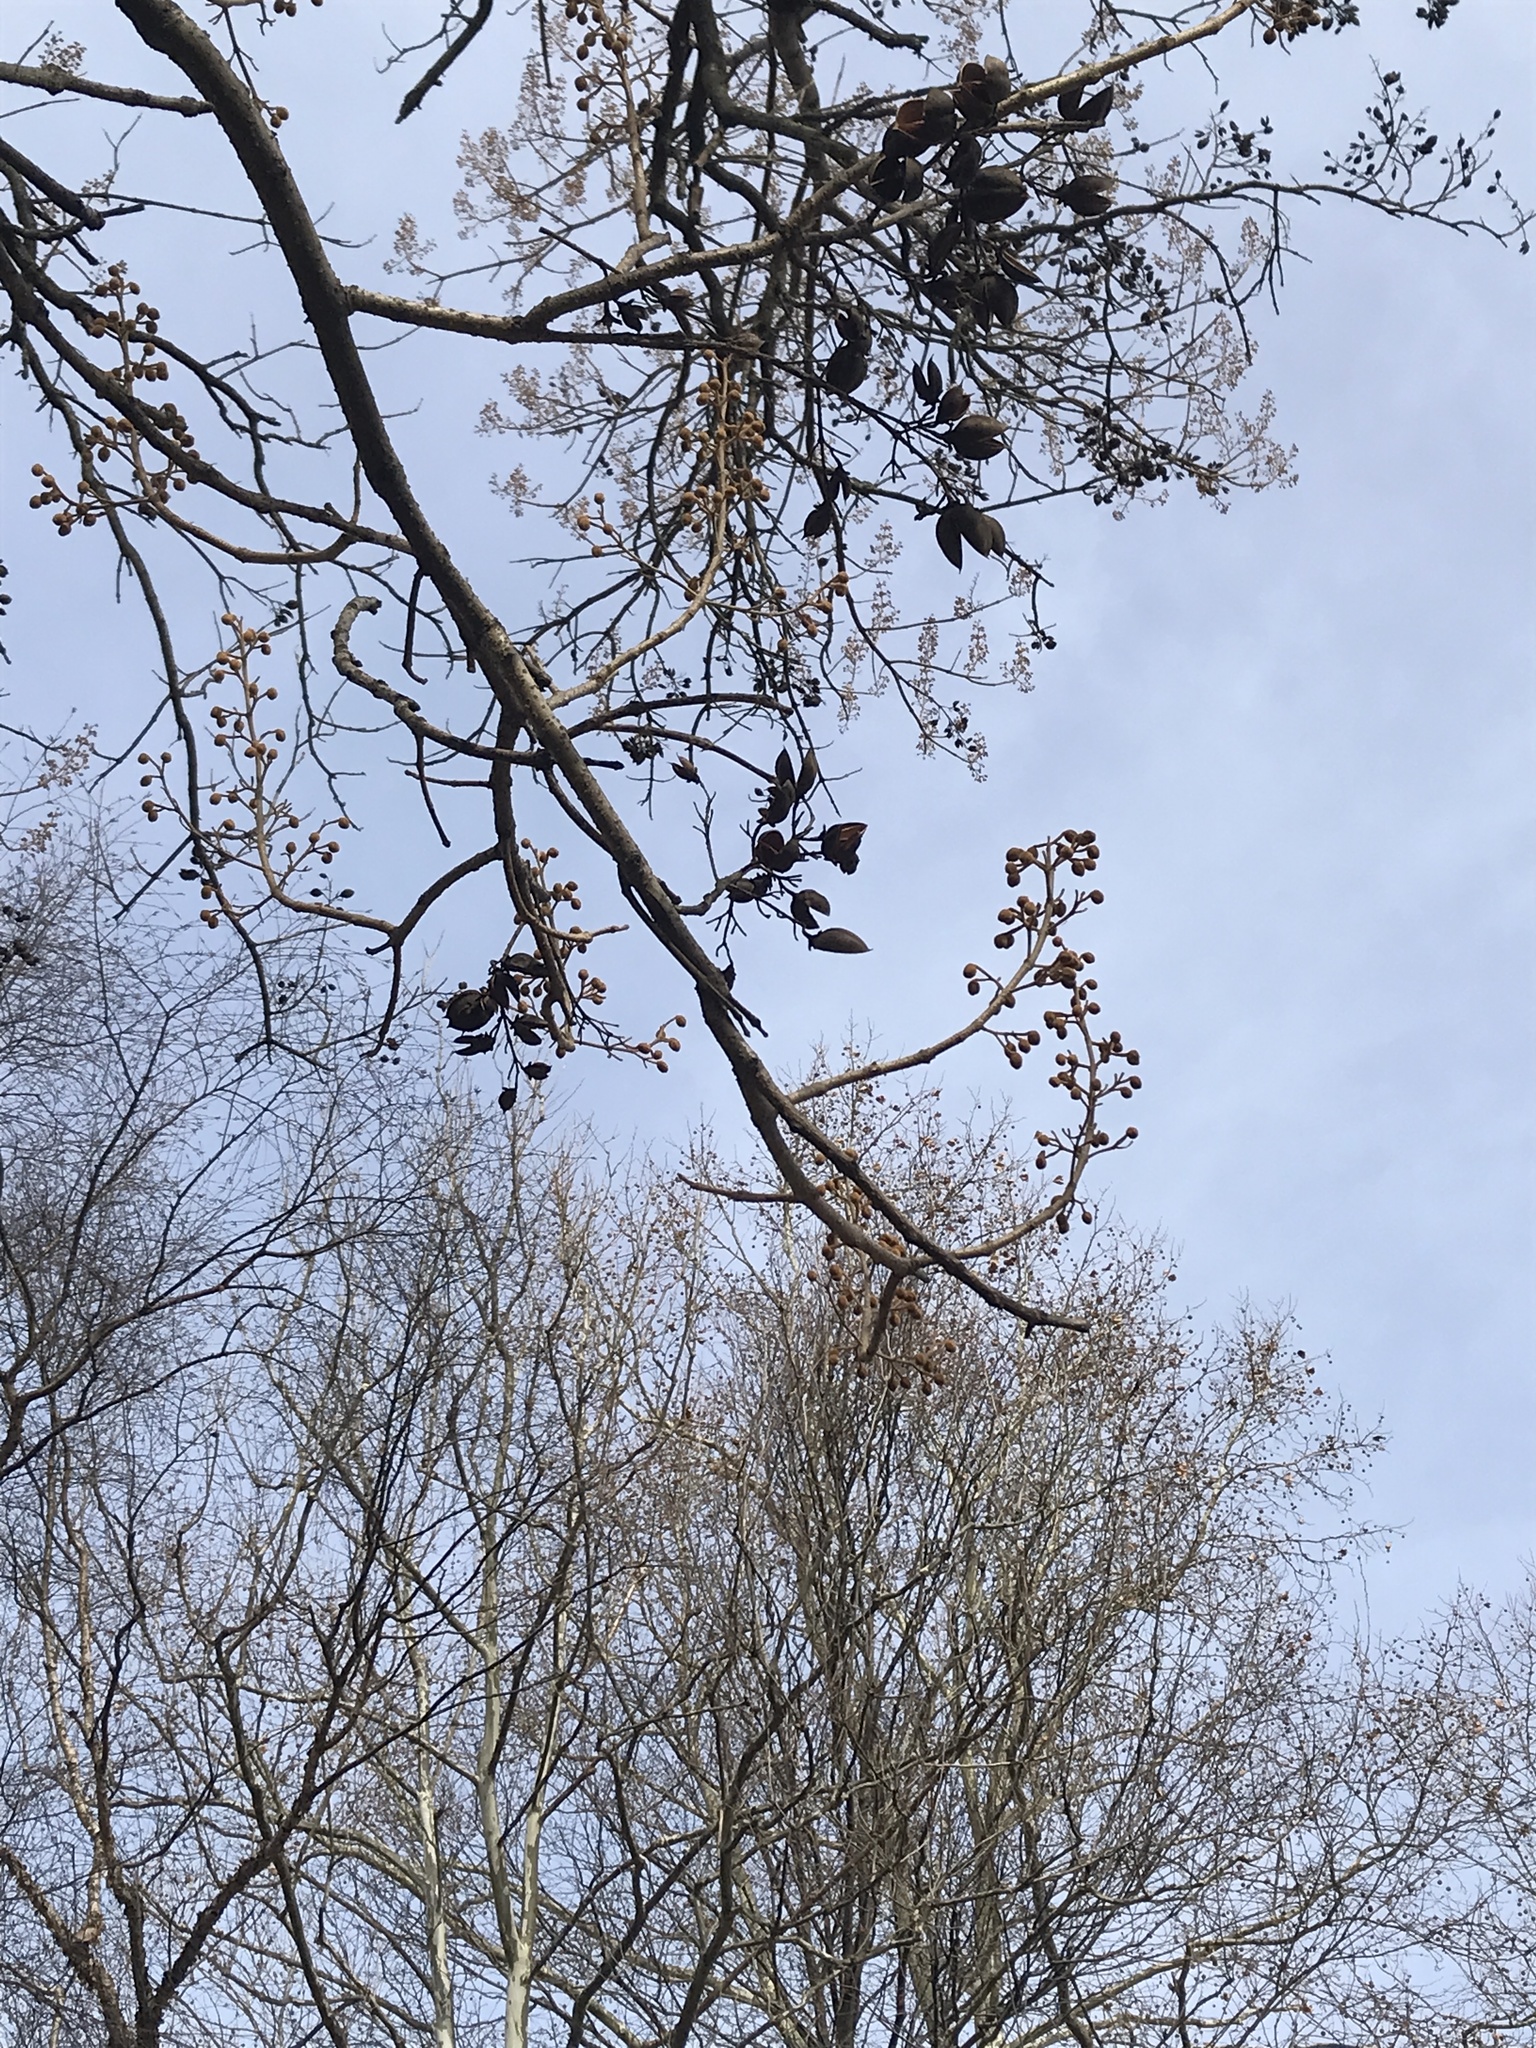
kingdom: Plantae
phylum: Tracheophyta
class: Magnoliopsida
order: Lamiales
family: Paulowniaceae
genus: Paulownia
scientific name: Paulownia tomentosa
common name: Foxglove-tree
